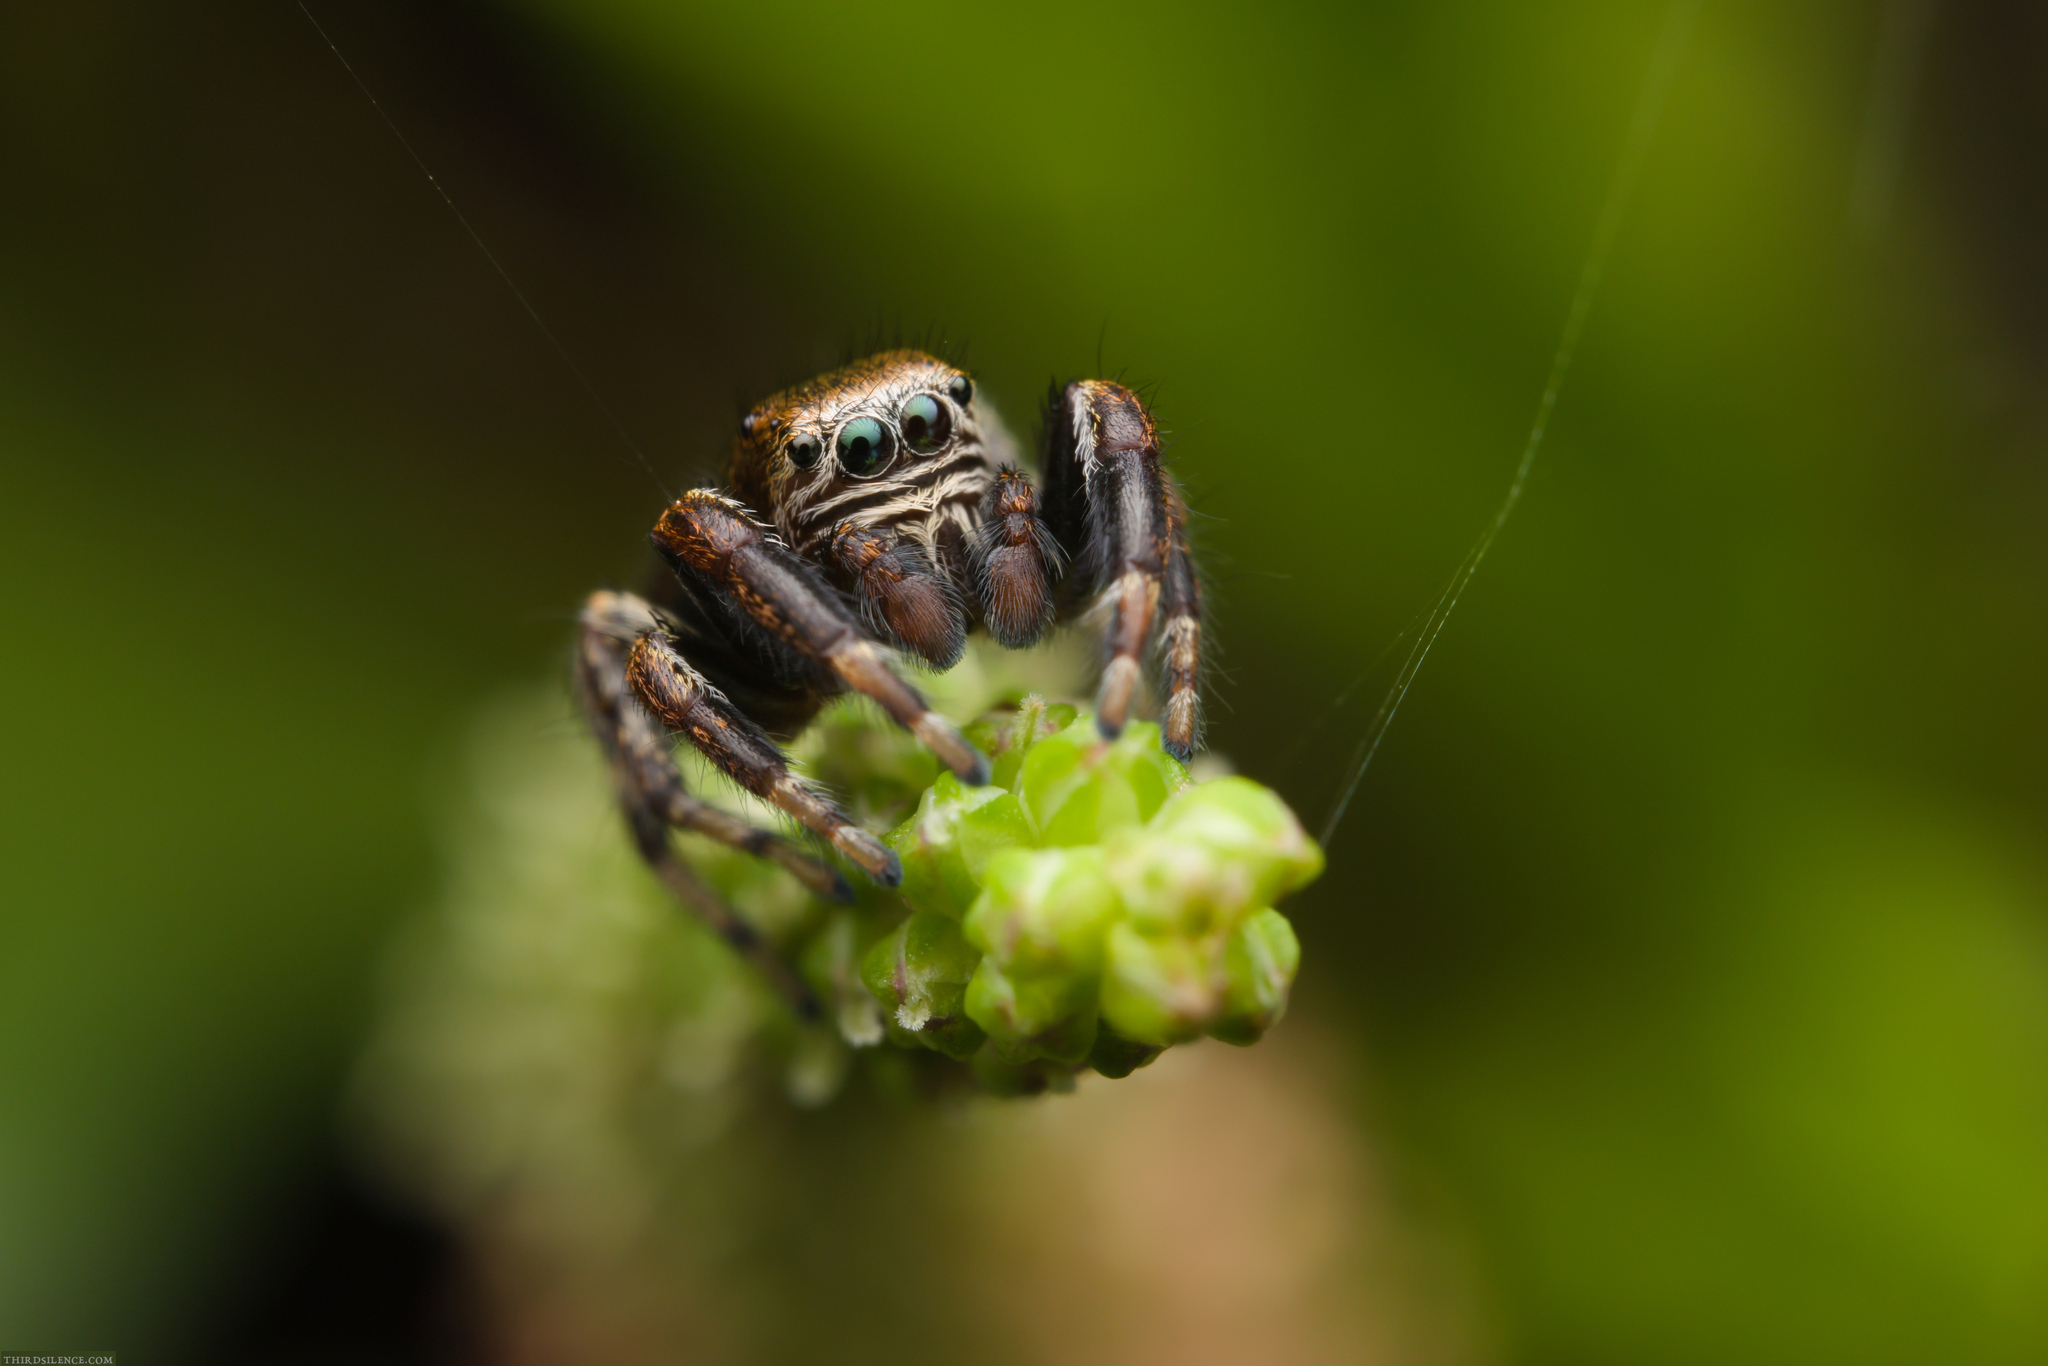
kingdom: Animalia
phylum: Arthropoda
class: Arachnida
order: Araneae
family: Salticidae
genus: Evarcha
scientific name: Evarcha arcuata
